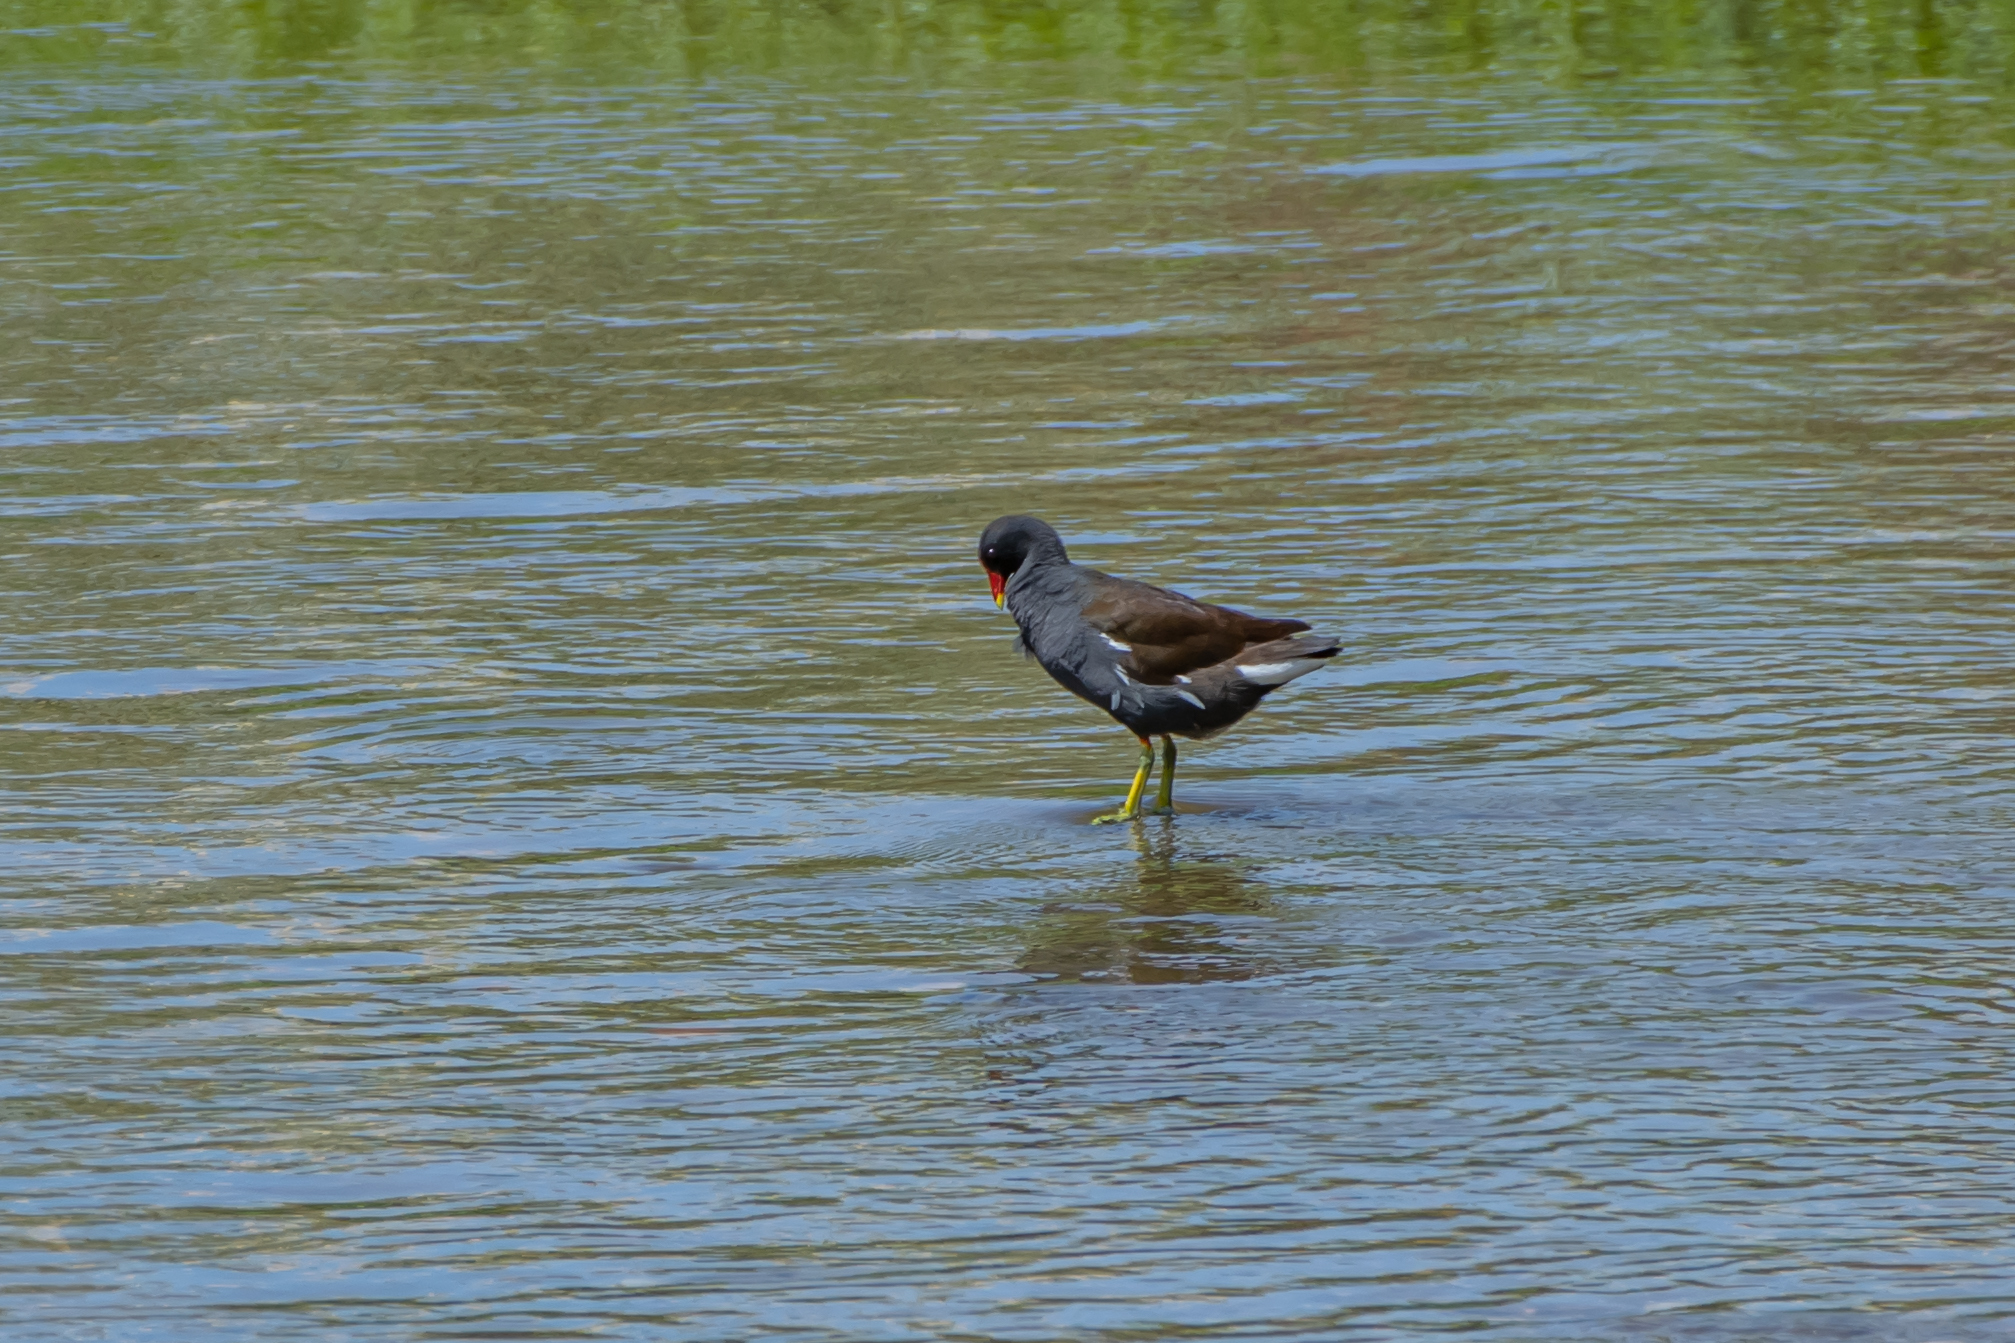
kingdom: Animalia
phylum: Chordata
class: Aves
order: Gruiformes
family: Rallidae
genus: Gallinula
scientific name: Gallinula chloropus
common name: Common moorhen
